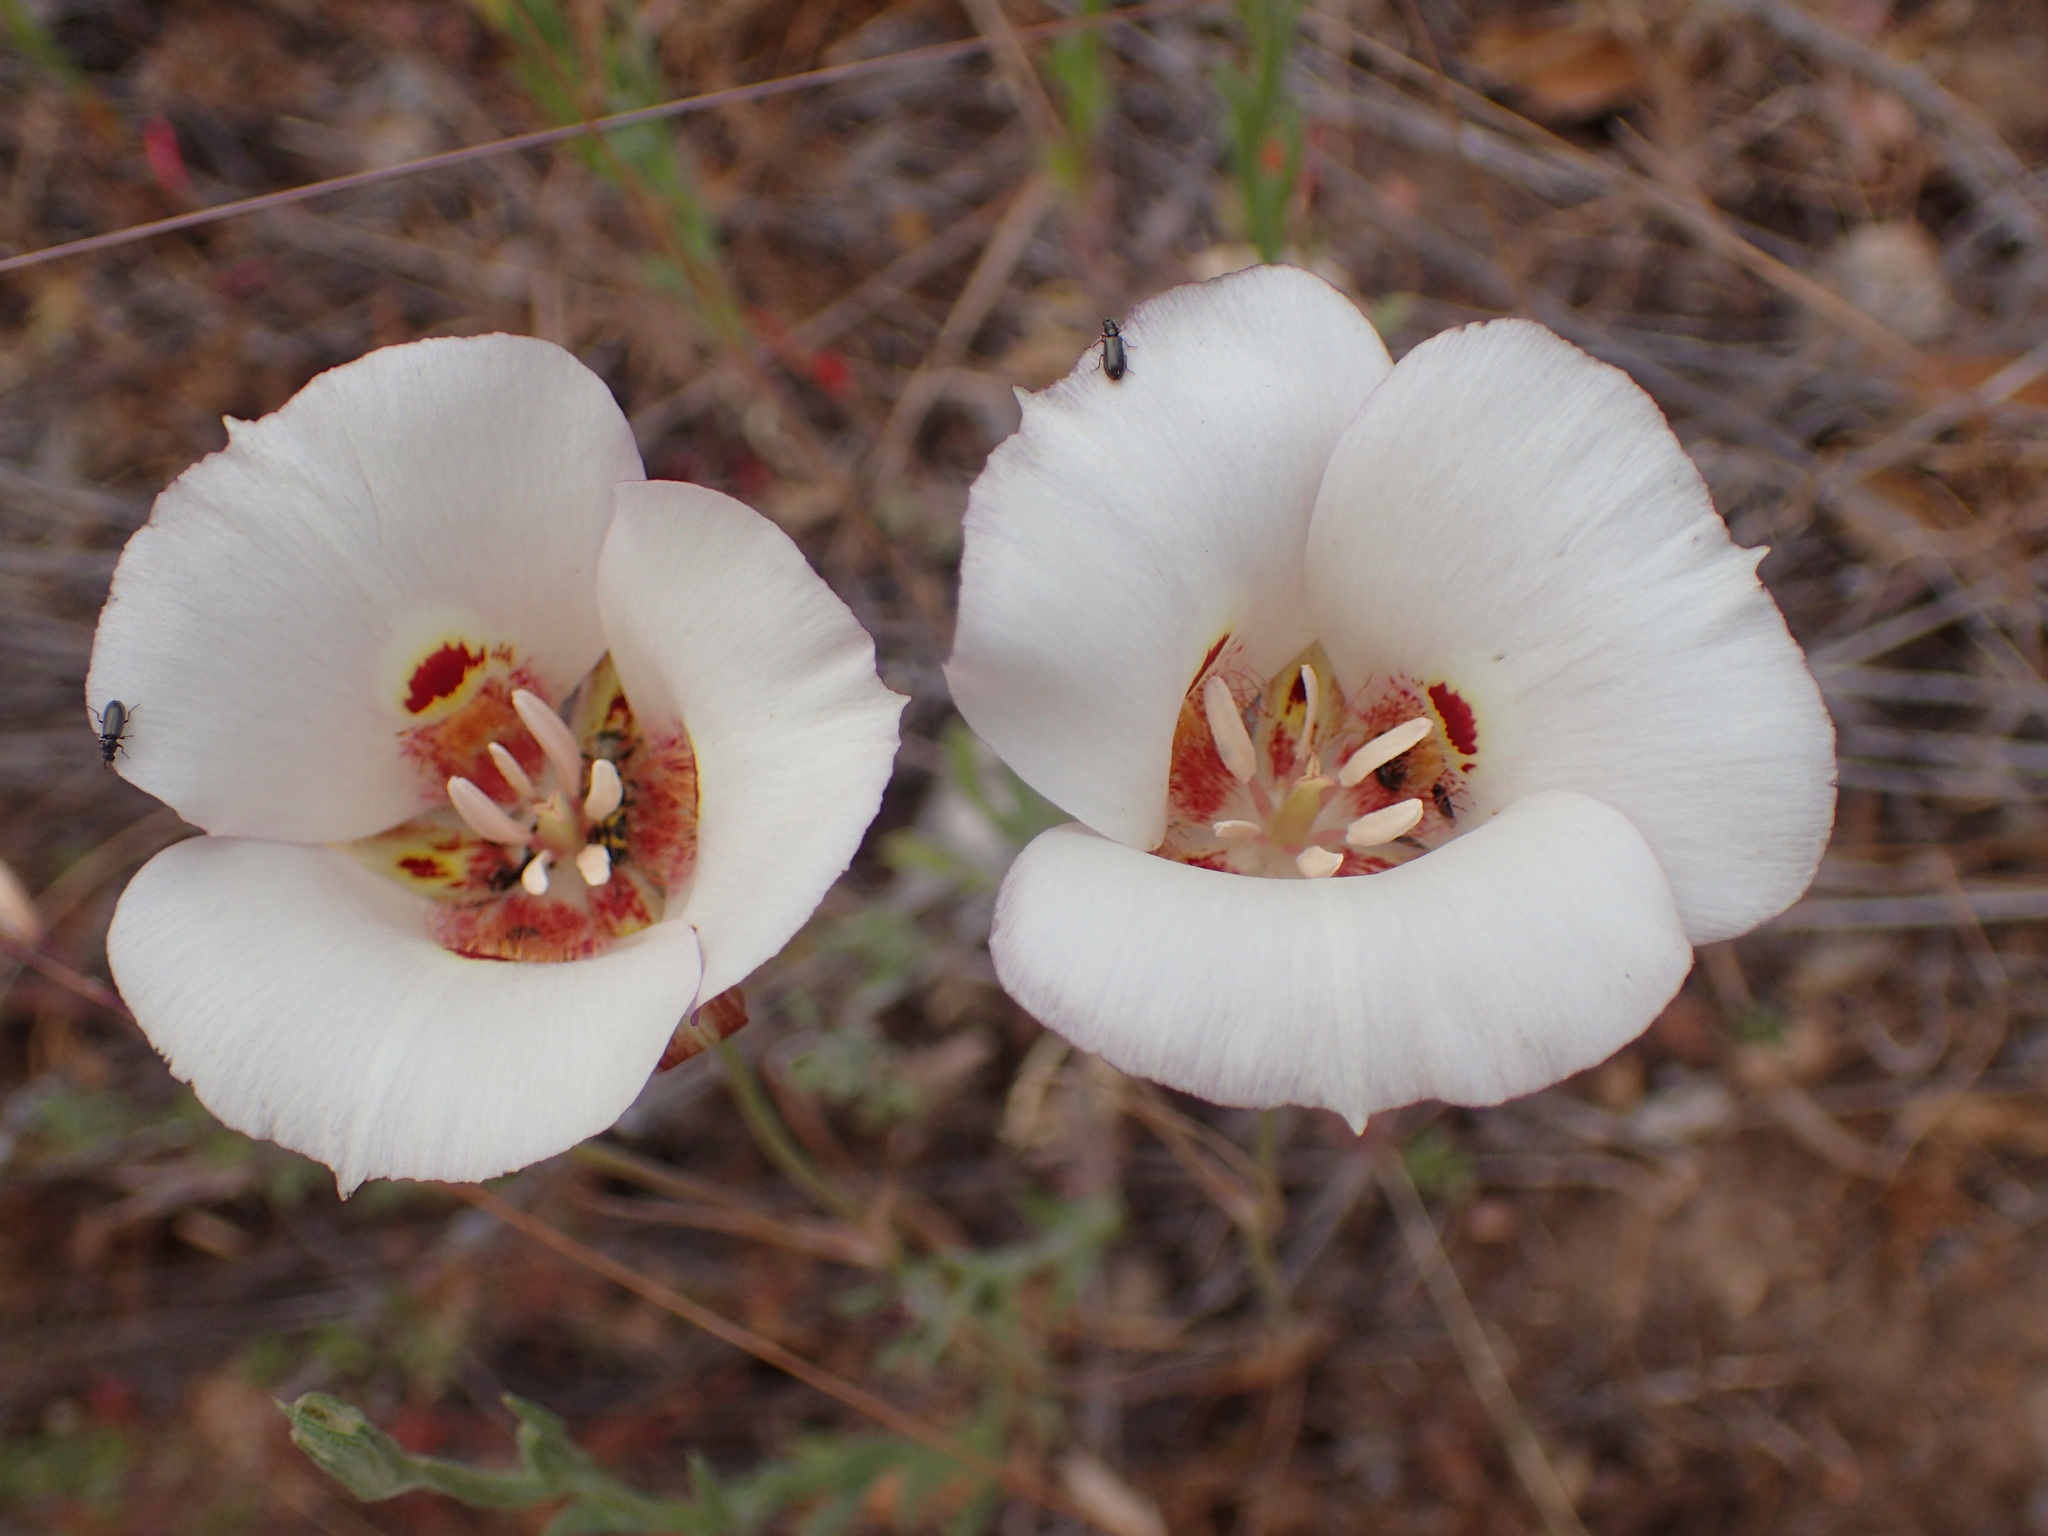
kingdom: Plantae
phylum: Tracheophyta
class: Liliopsida
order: Liliales
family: Liliaceae
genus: Calochortus
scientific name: Calochortus venustus
